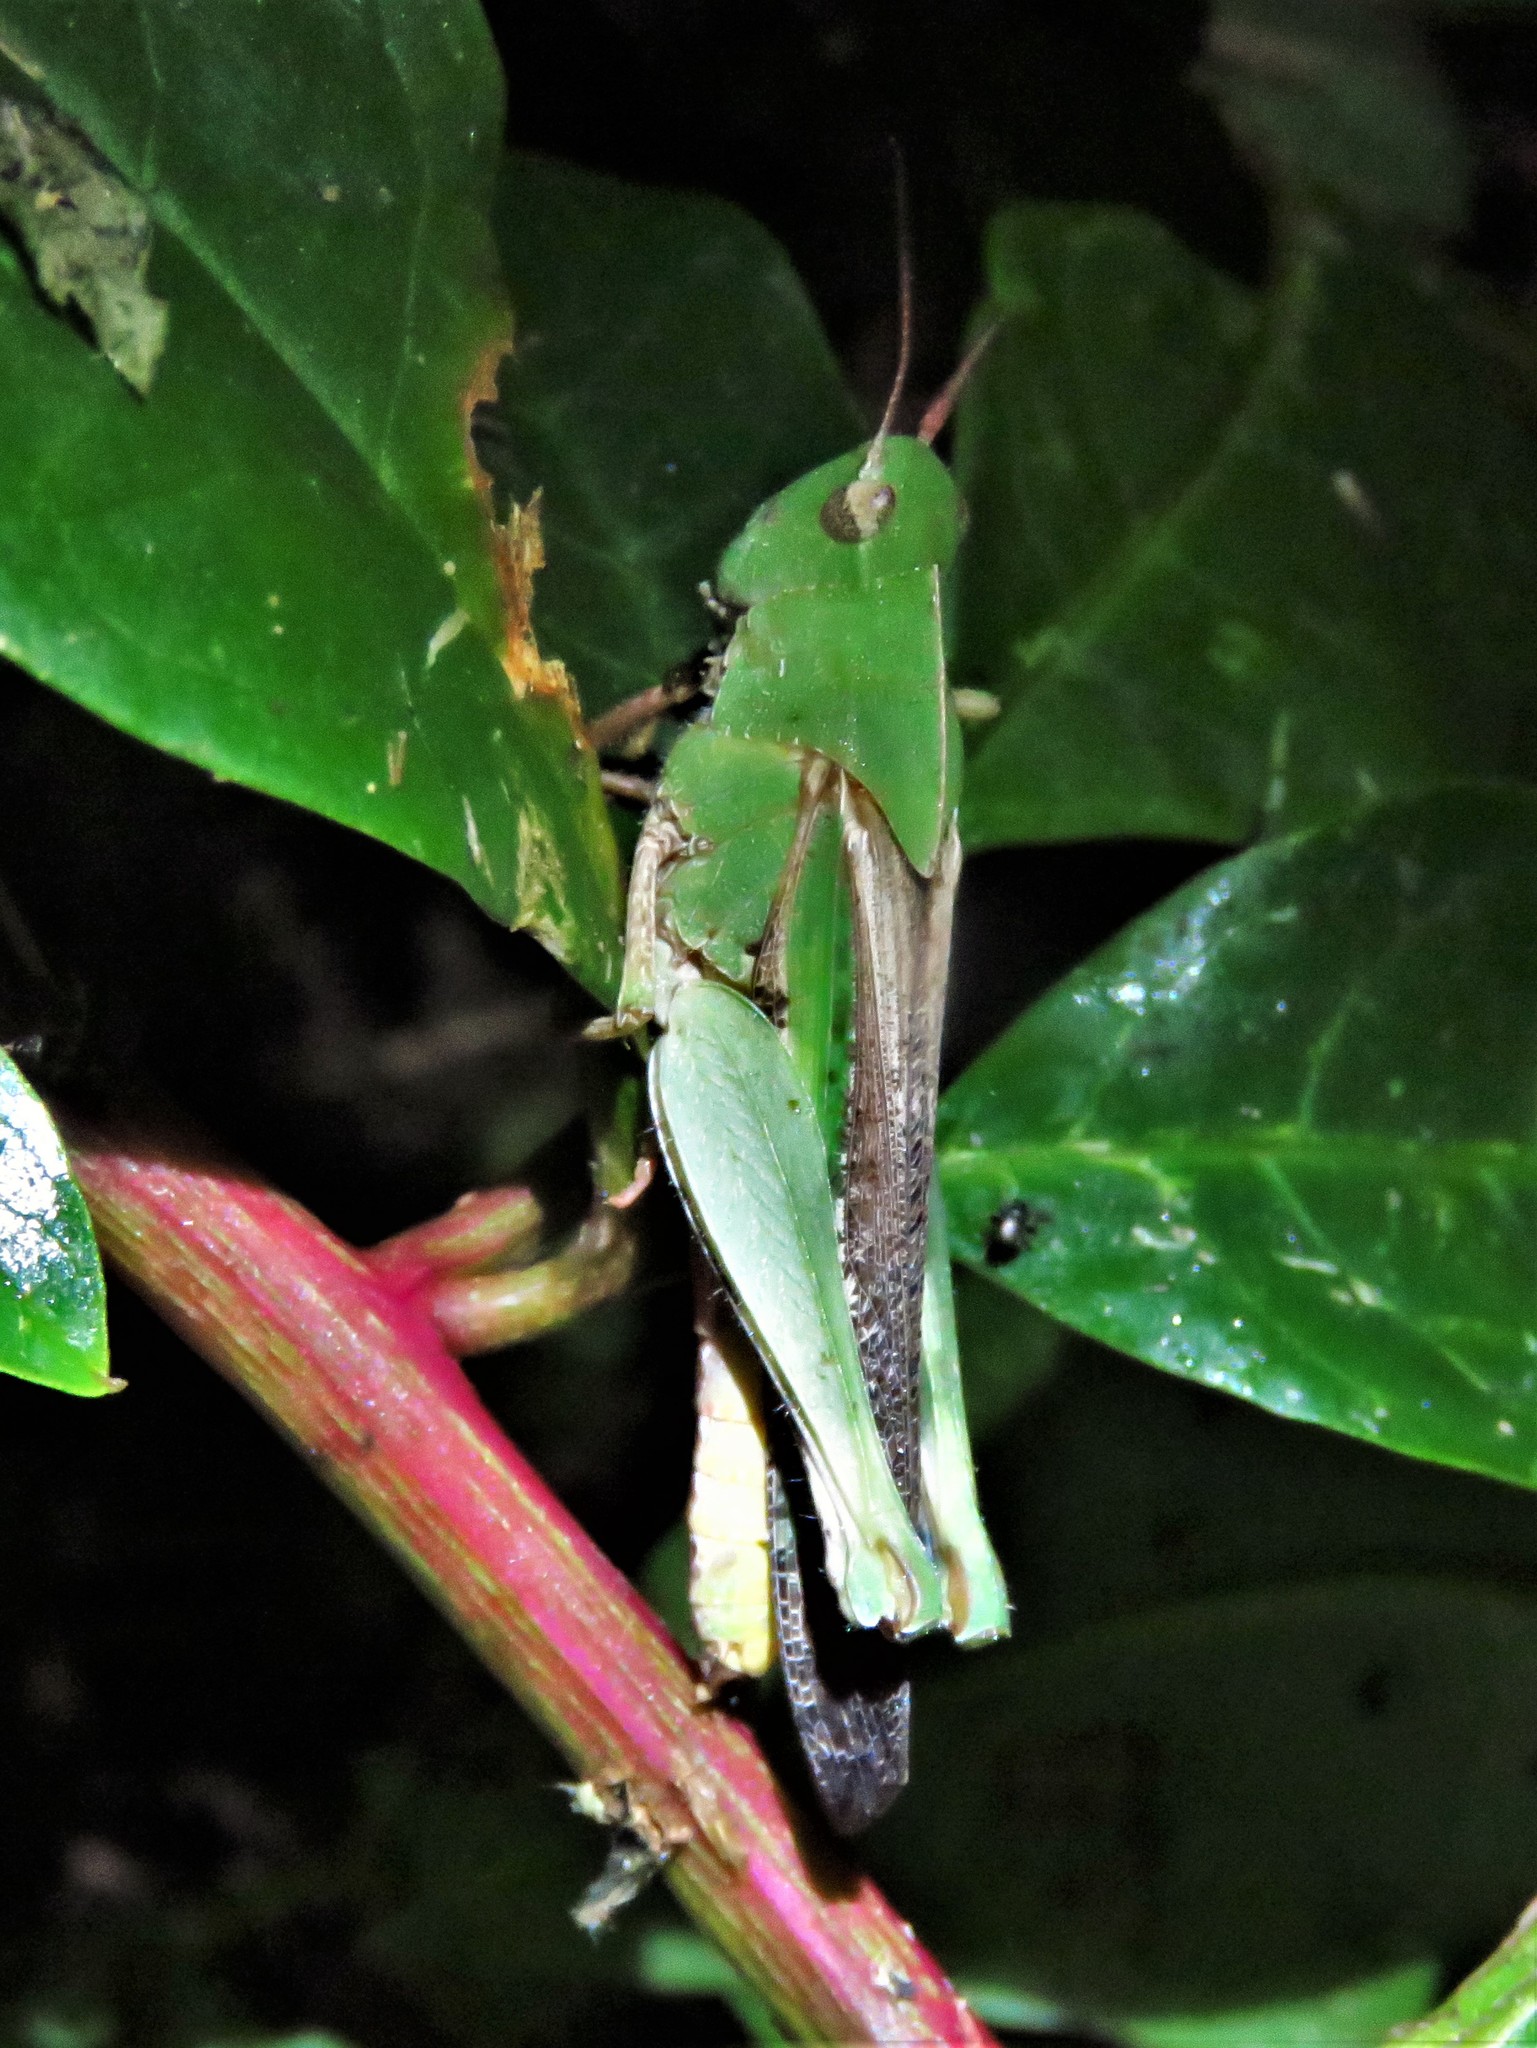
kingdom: Animalia
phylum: Arthropoda
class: Insecta
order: Orthoptera
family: Acrididae
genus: Chortophaga
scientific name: Chortophaga viridifasciata
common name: Green-striped grasshopper
